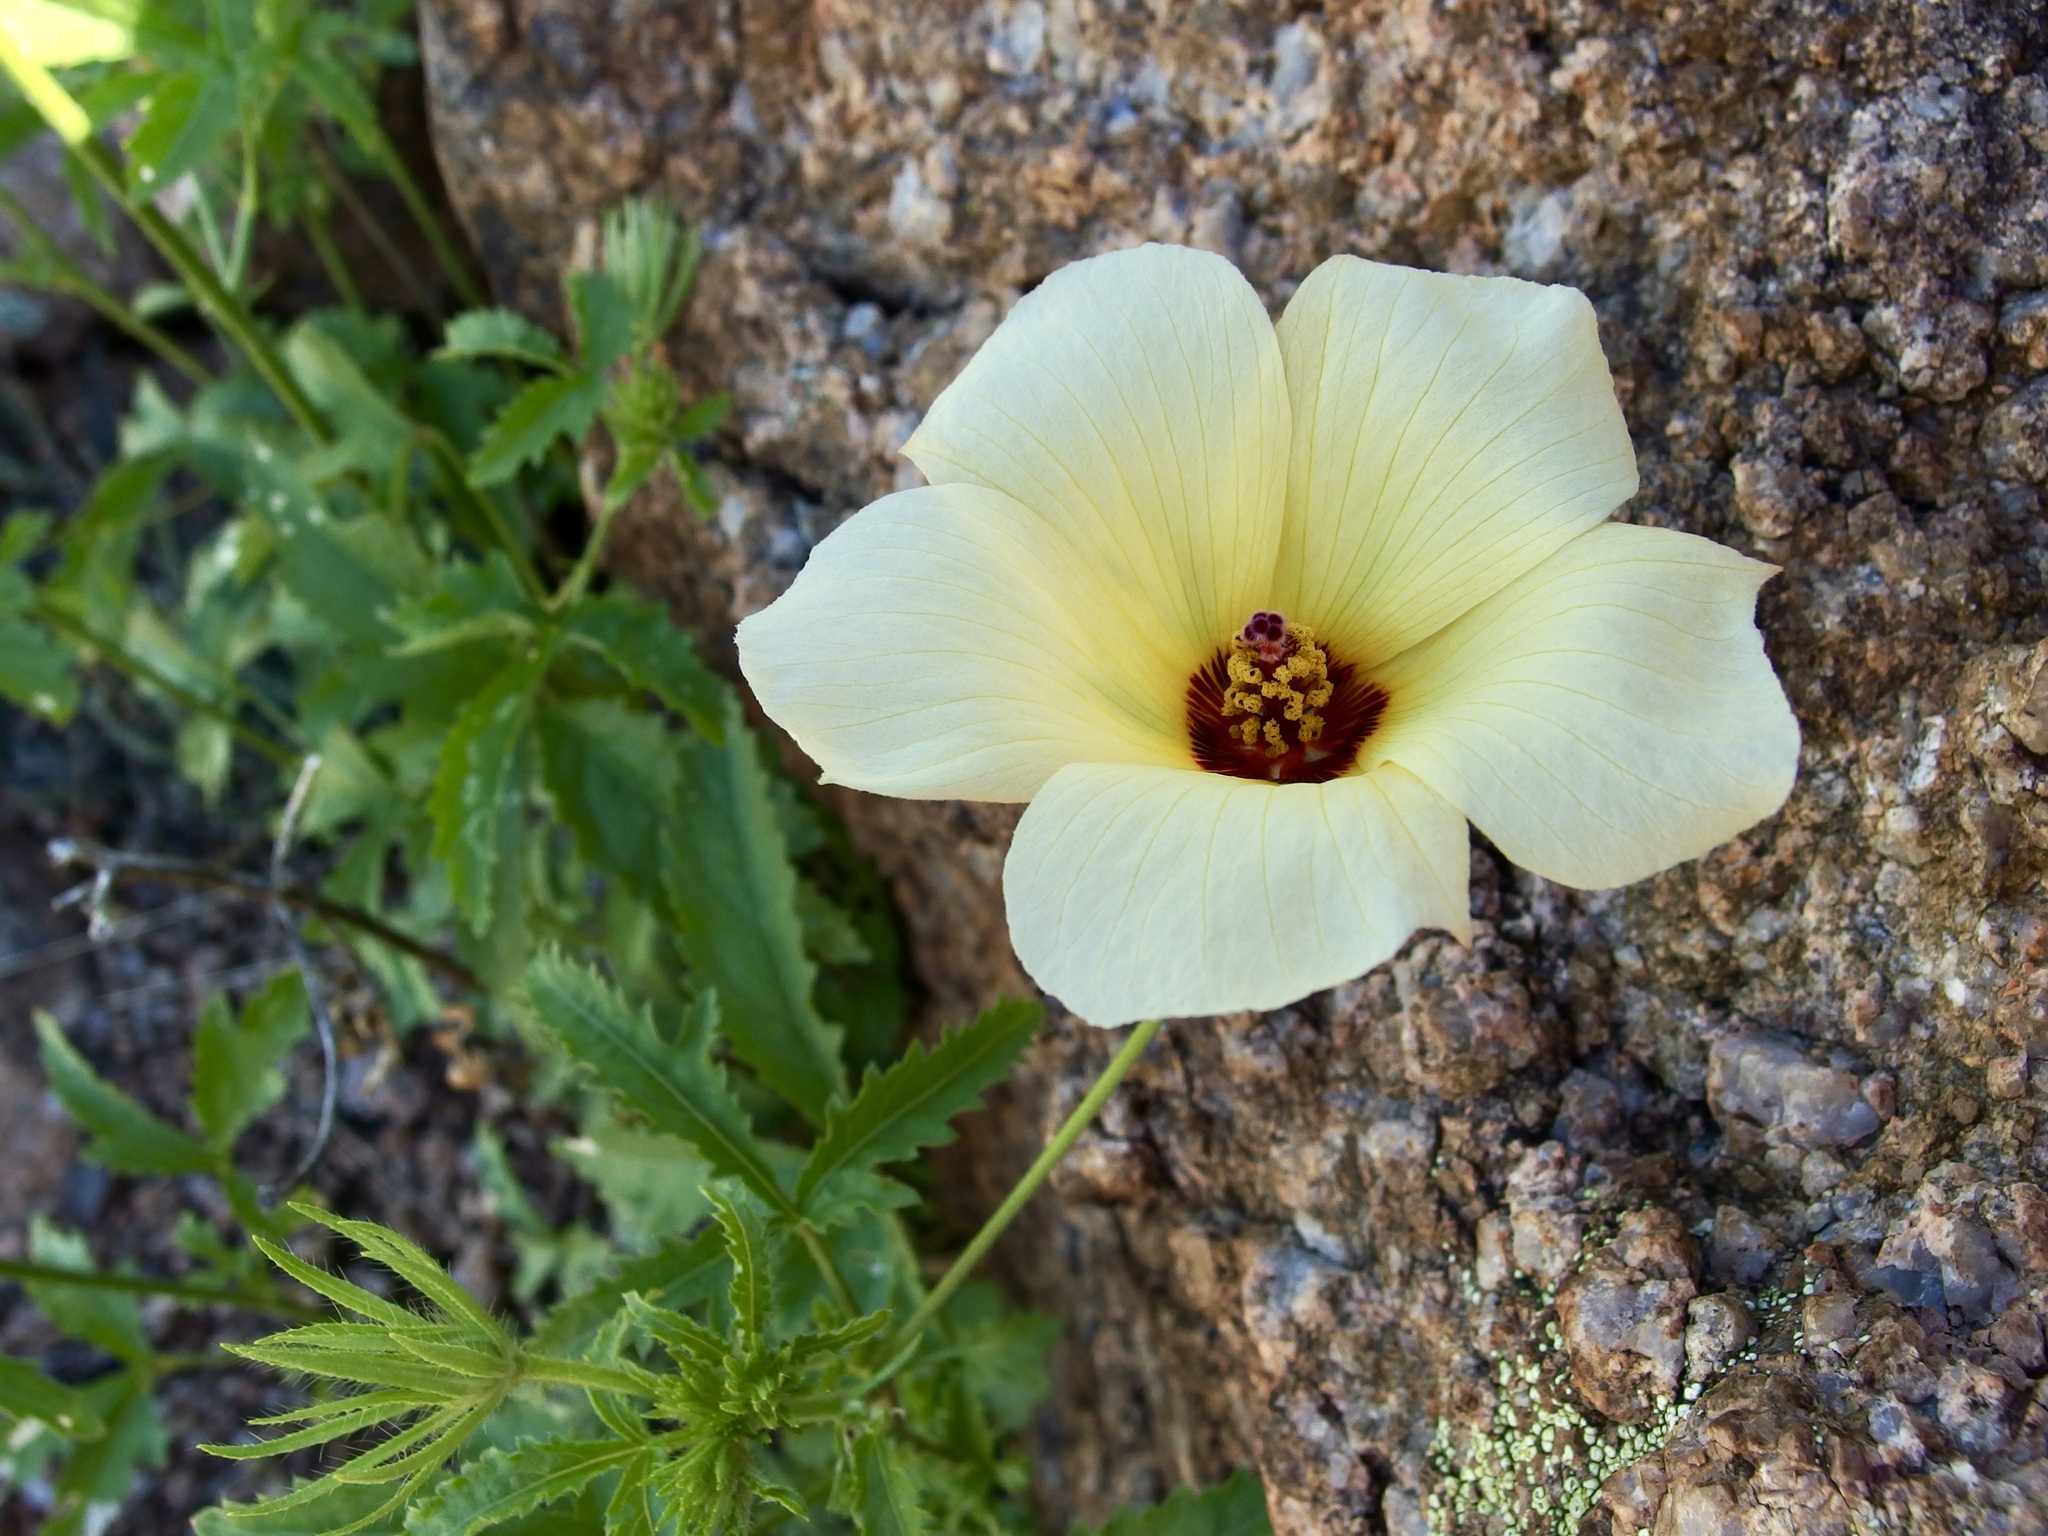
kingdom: Plantae
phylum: Tracheophyta
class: Magnoliopsida
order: Malvales
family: Malvaceae
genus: Hibiscus
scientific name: Hibiscus biseptus
